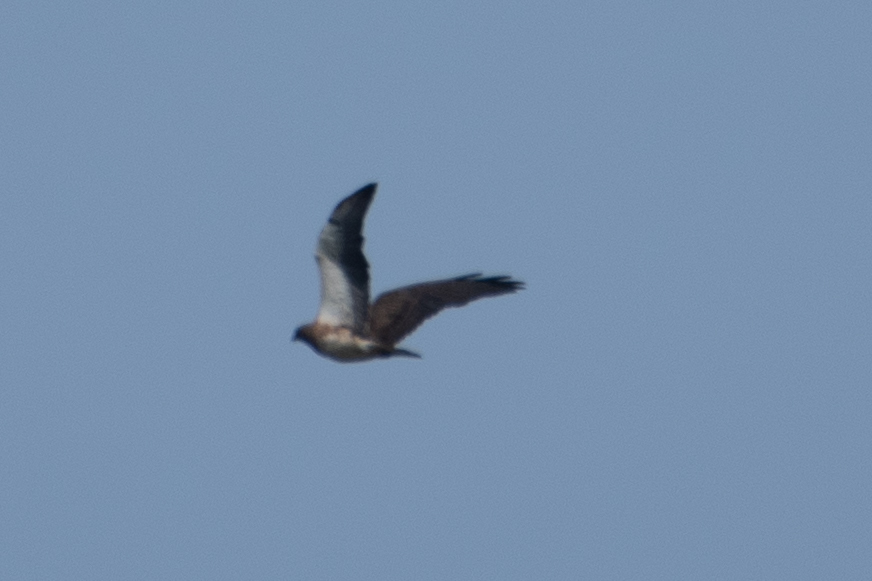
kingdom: Animalia
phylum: Chordata
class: Aves
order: Accipitriformes
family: Accipitridae
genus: Buteo
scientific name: Buteo swainsoni
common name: Swainson's hawk
